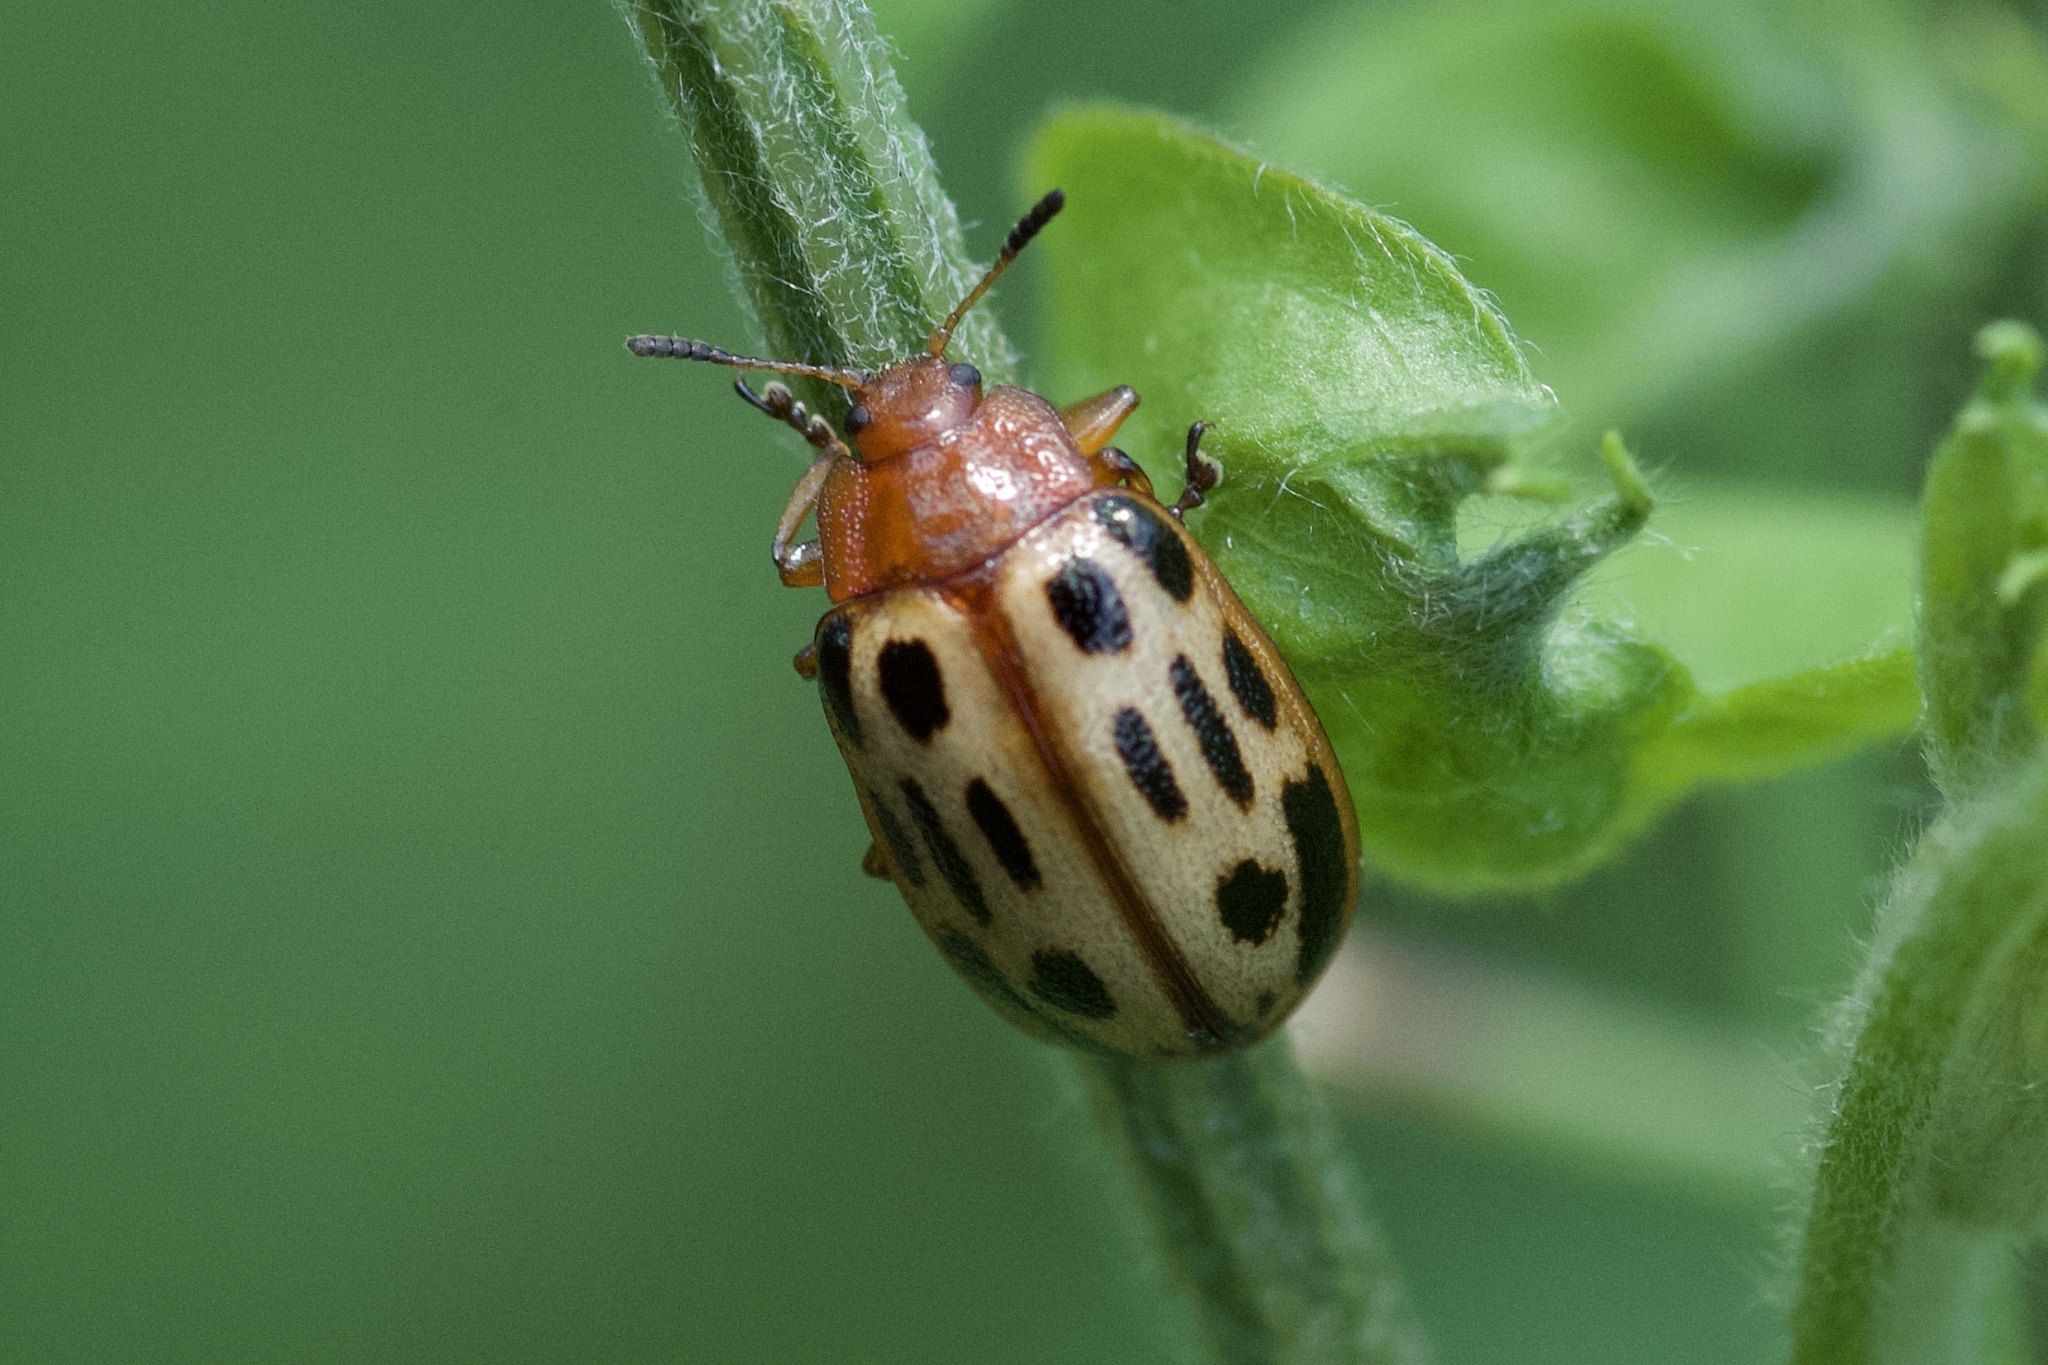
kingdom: Animalia
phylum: Arthropoda
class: Insecta
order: Coleoptera
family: Chrysomelidae
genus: Chrysomela
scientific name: Chrysomela texana
